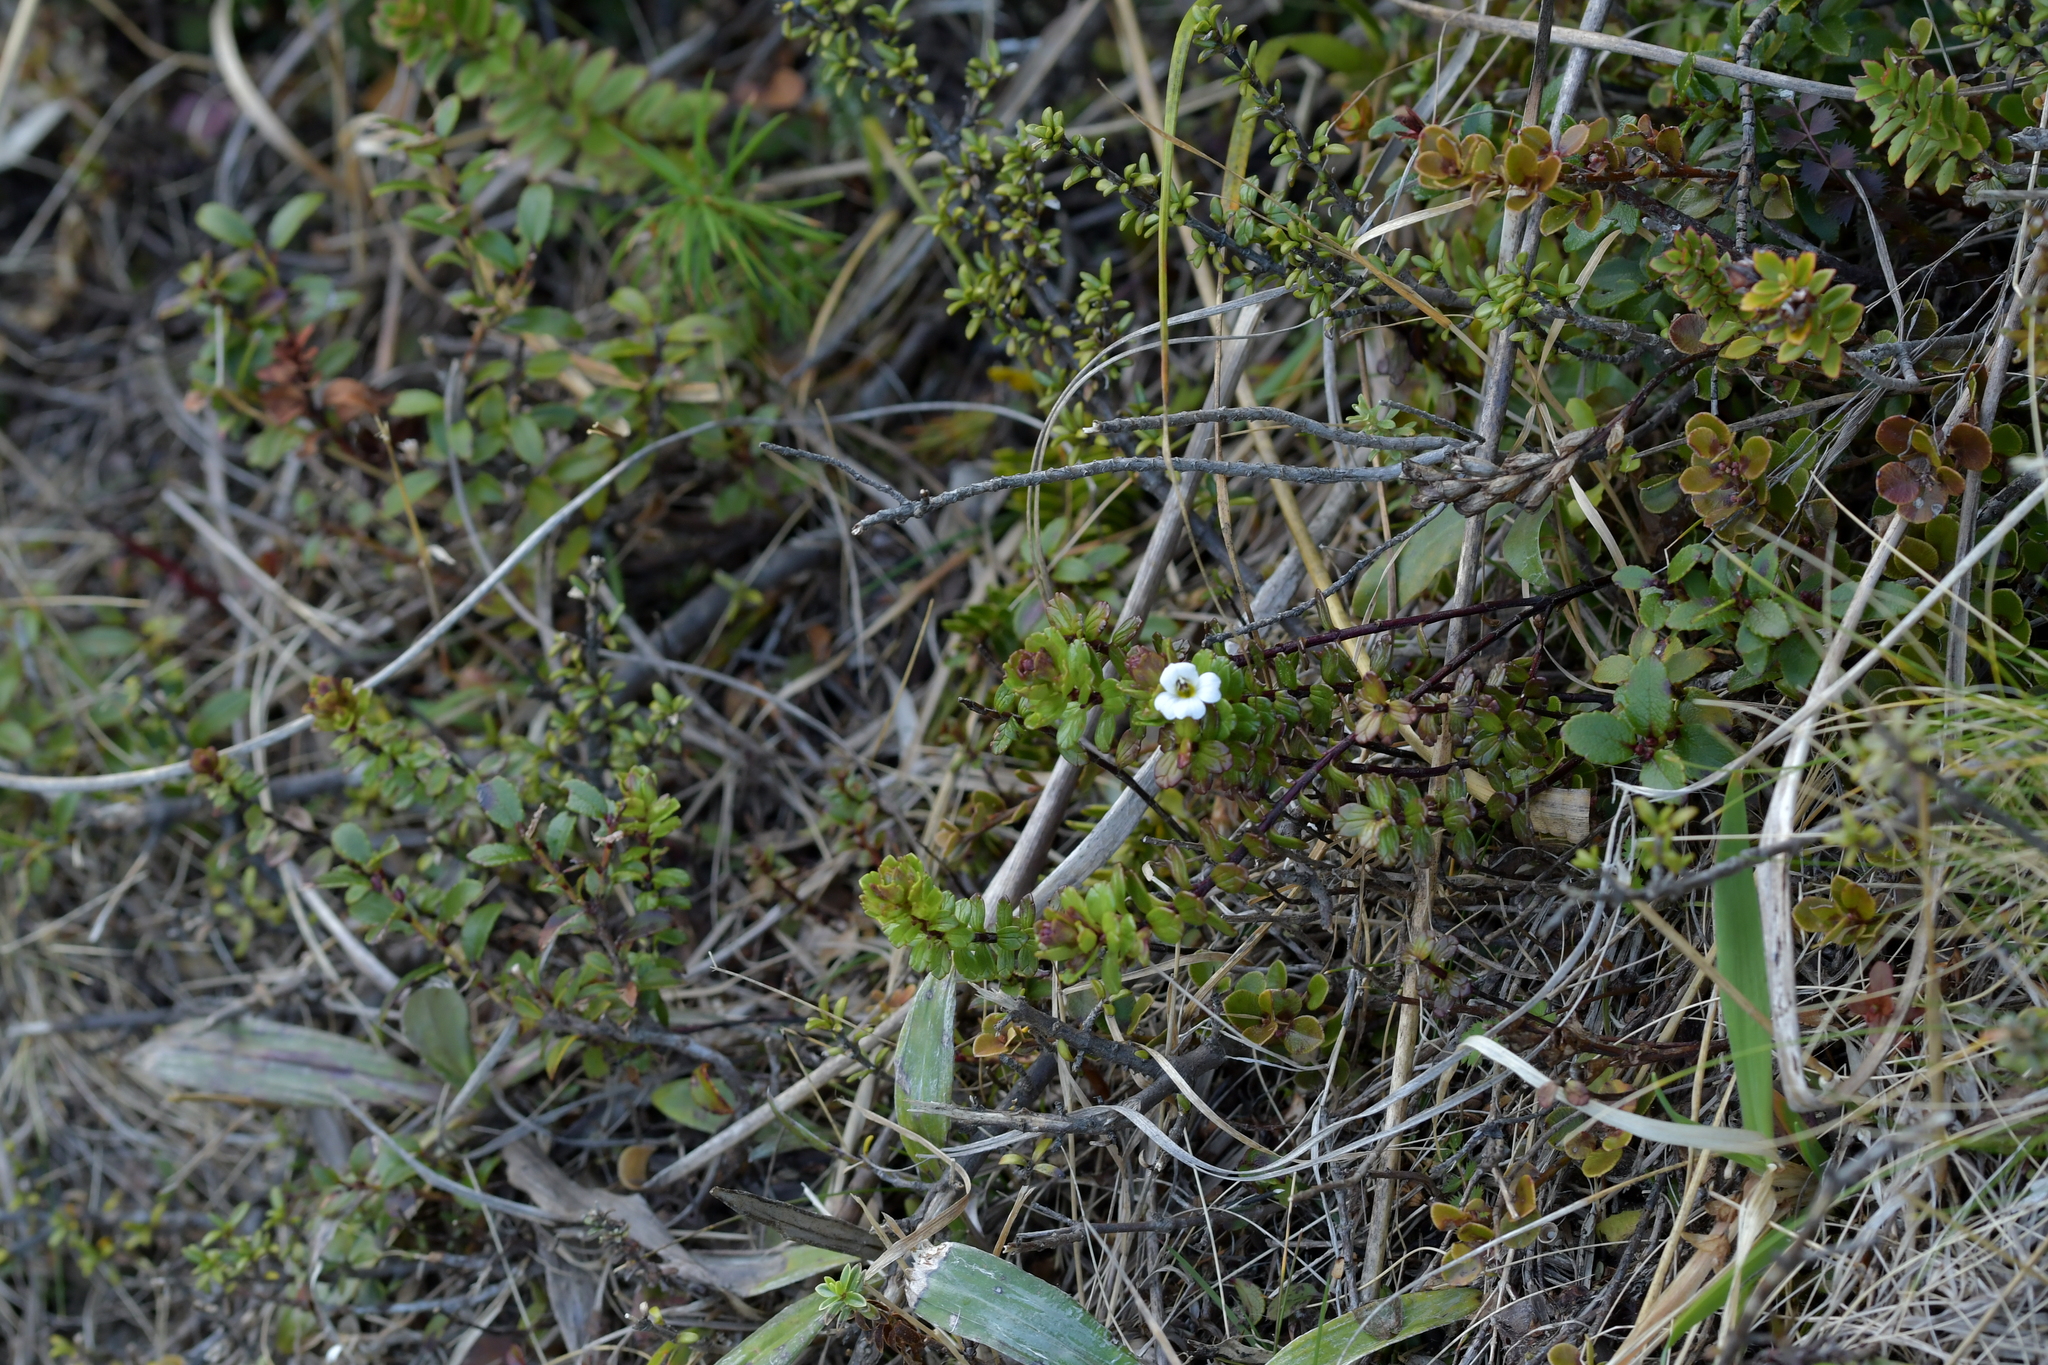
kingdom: Plantae
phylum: Tracheophyta
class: Magnoliopsida
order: Lamiales
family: Orobanchaceae
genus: Euphrasia
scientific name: Euphrasia monroi
